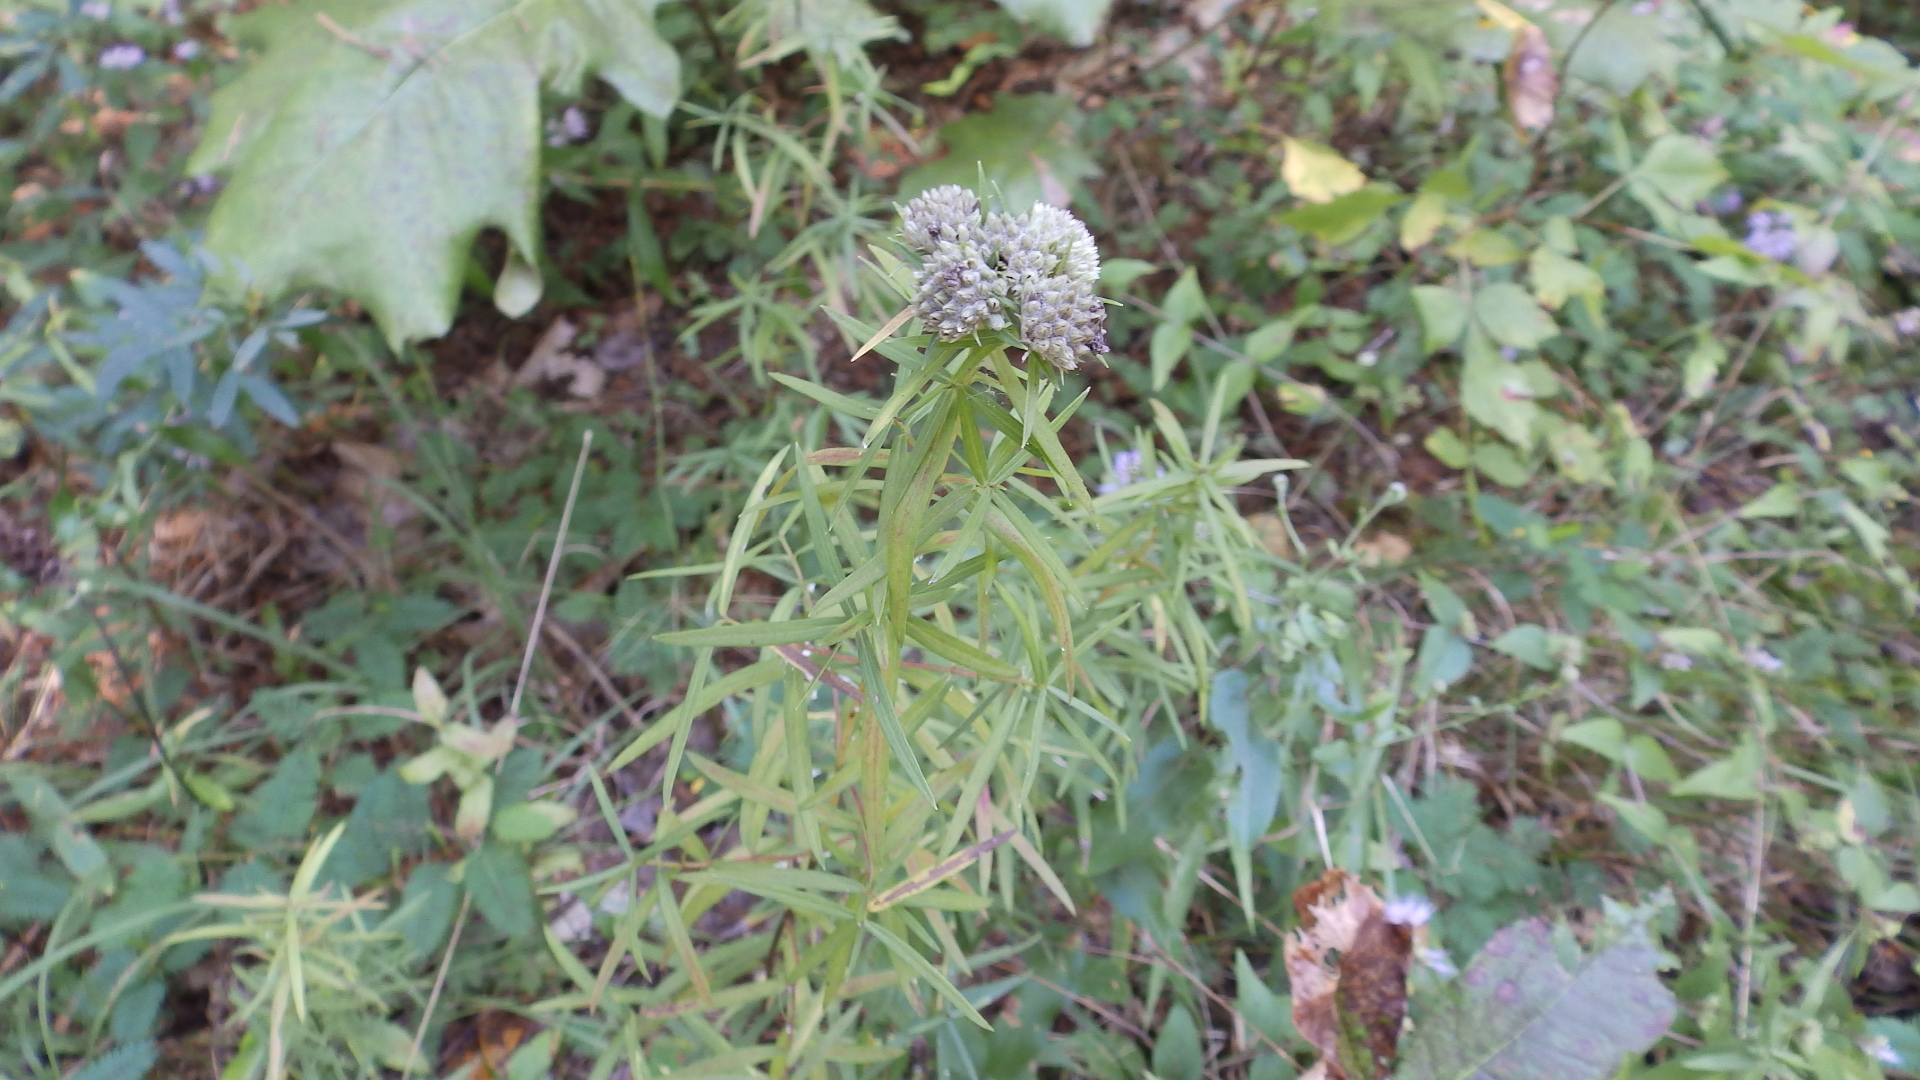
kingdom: Plantae
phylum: Tracheophyta
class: Magnoliopsida
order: Lamiales
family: Lamiaceae
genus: Pycnanthemum
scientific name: Pycnanthemum tenuifolium
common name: Narrow-leaf mountain-mint
